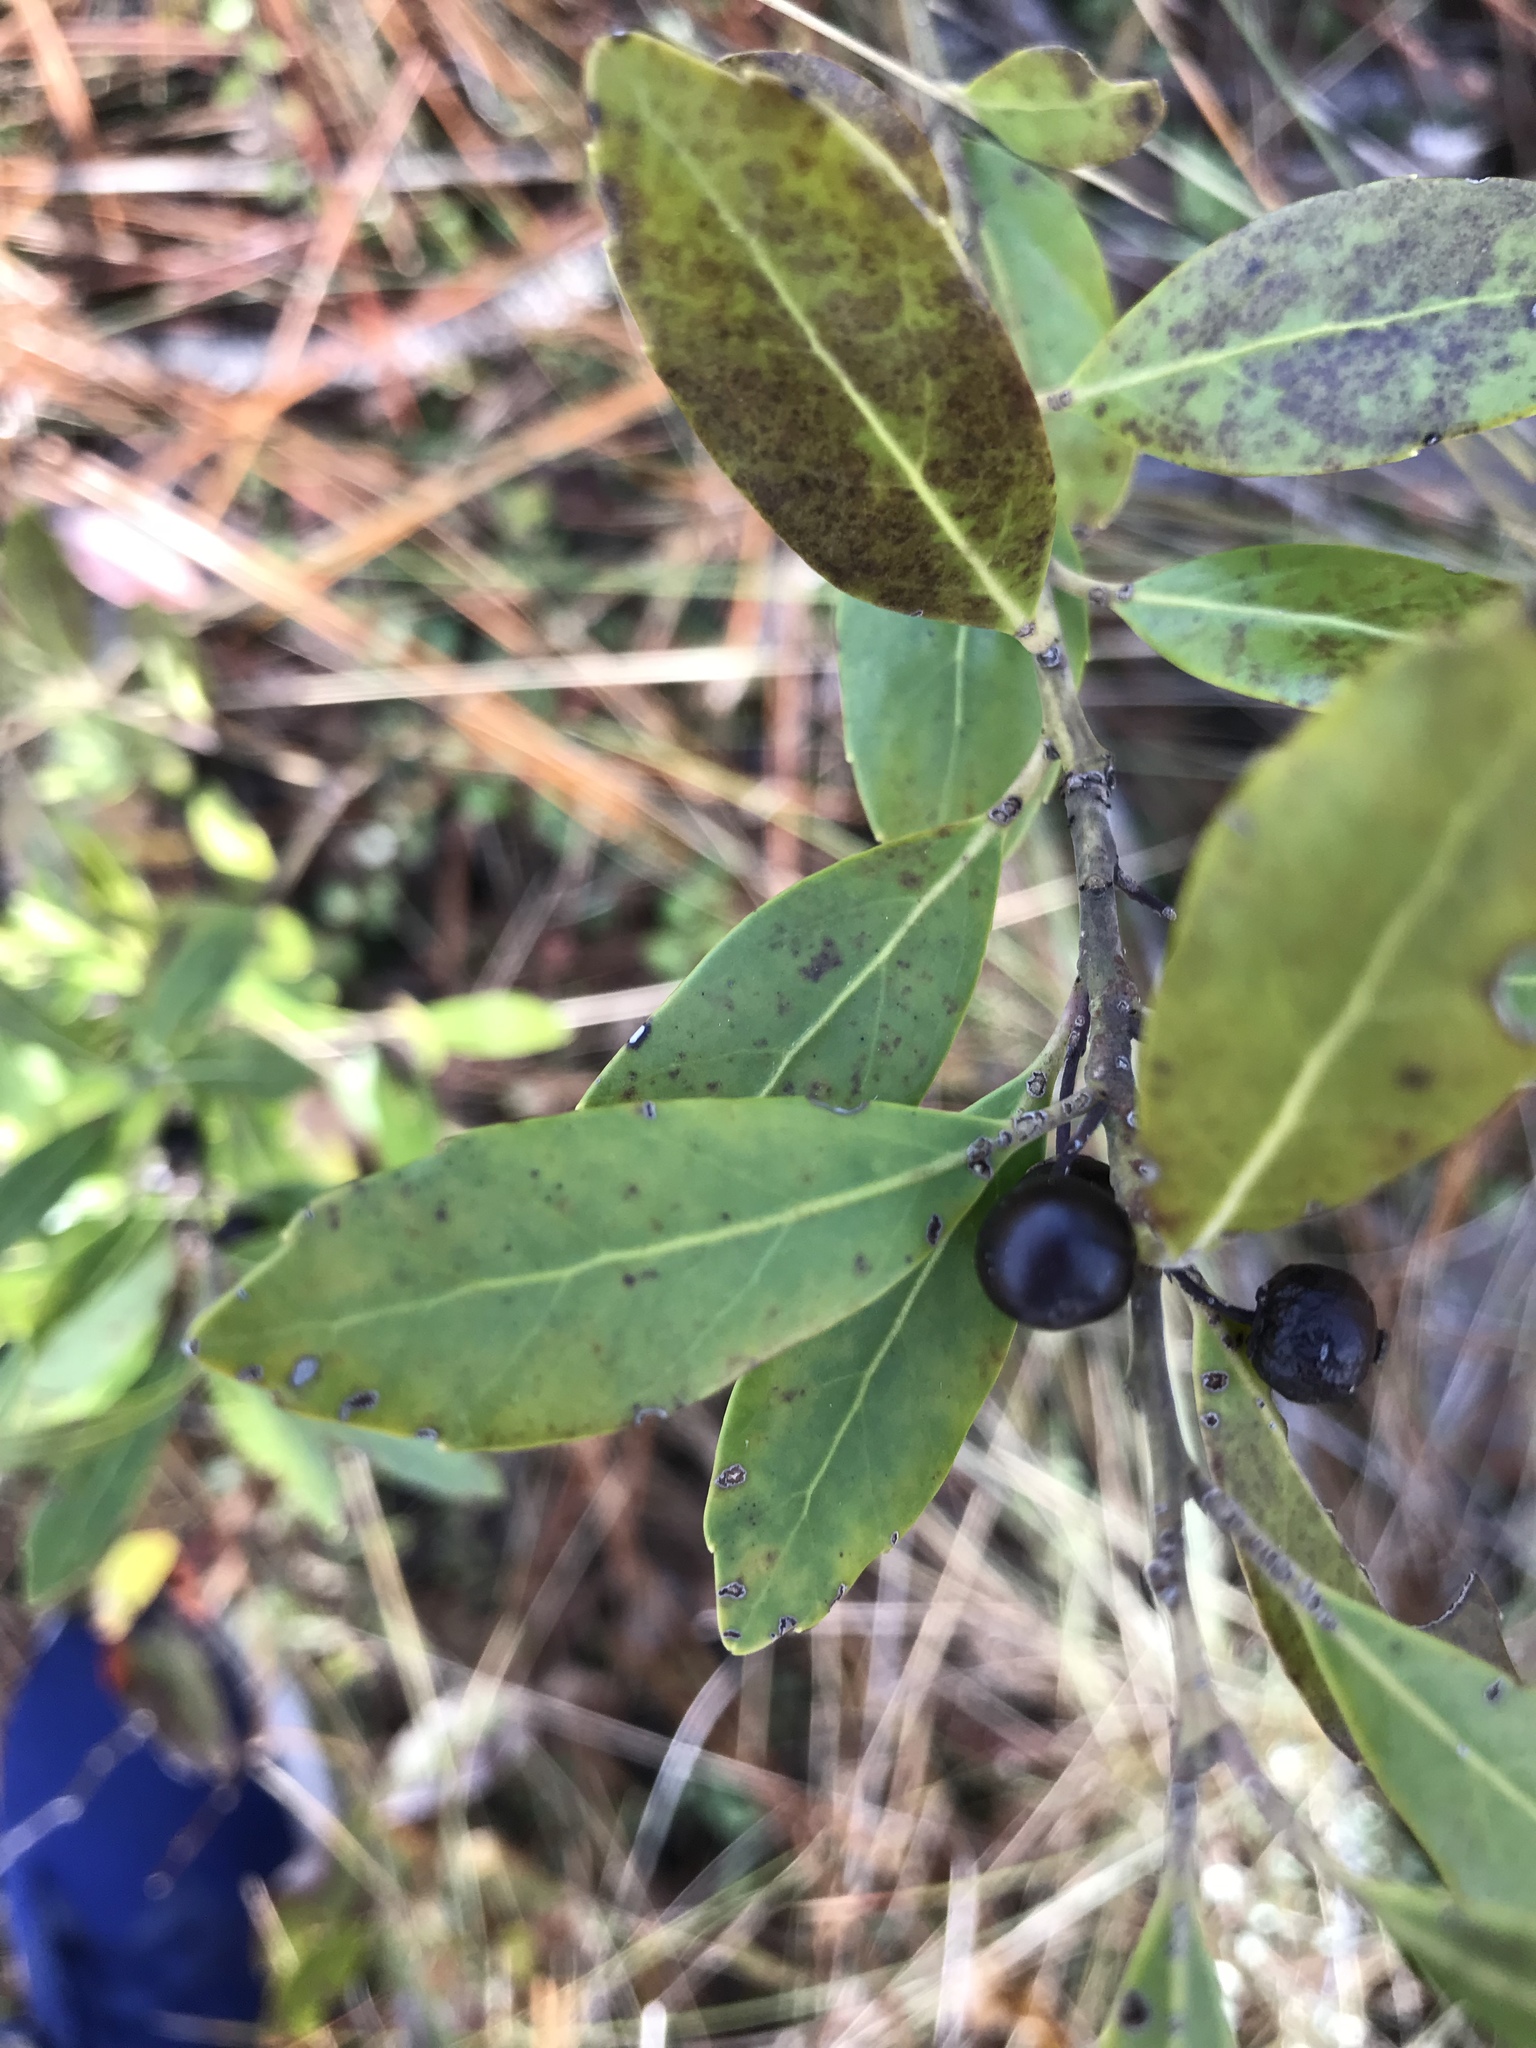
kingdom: Plantae
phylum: Tracheophyta
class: Magnoliopsida
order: Aquifoliales
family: Aquifoliaceae
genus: Ilex
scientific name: Ilex glabra
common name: Bitter gallberry
